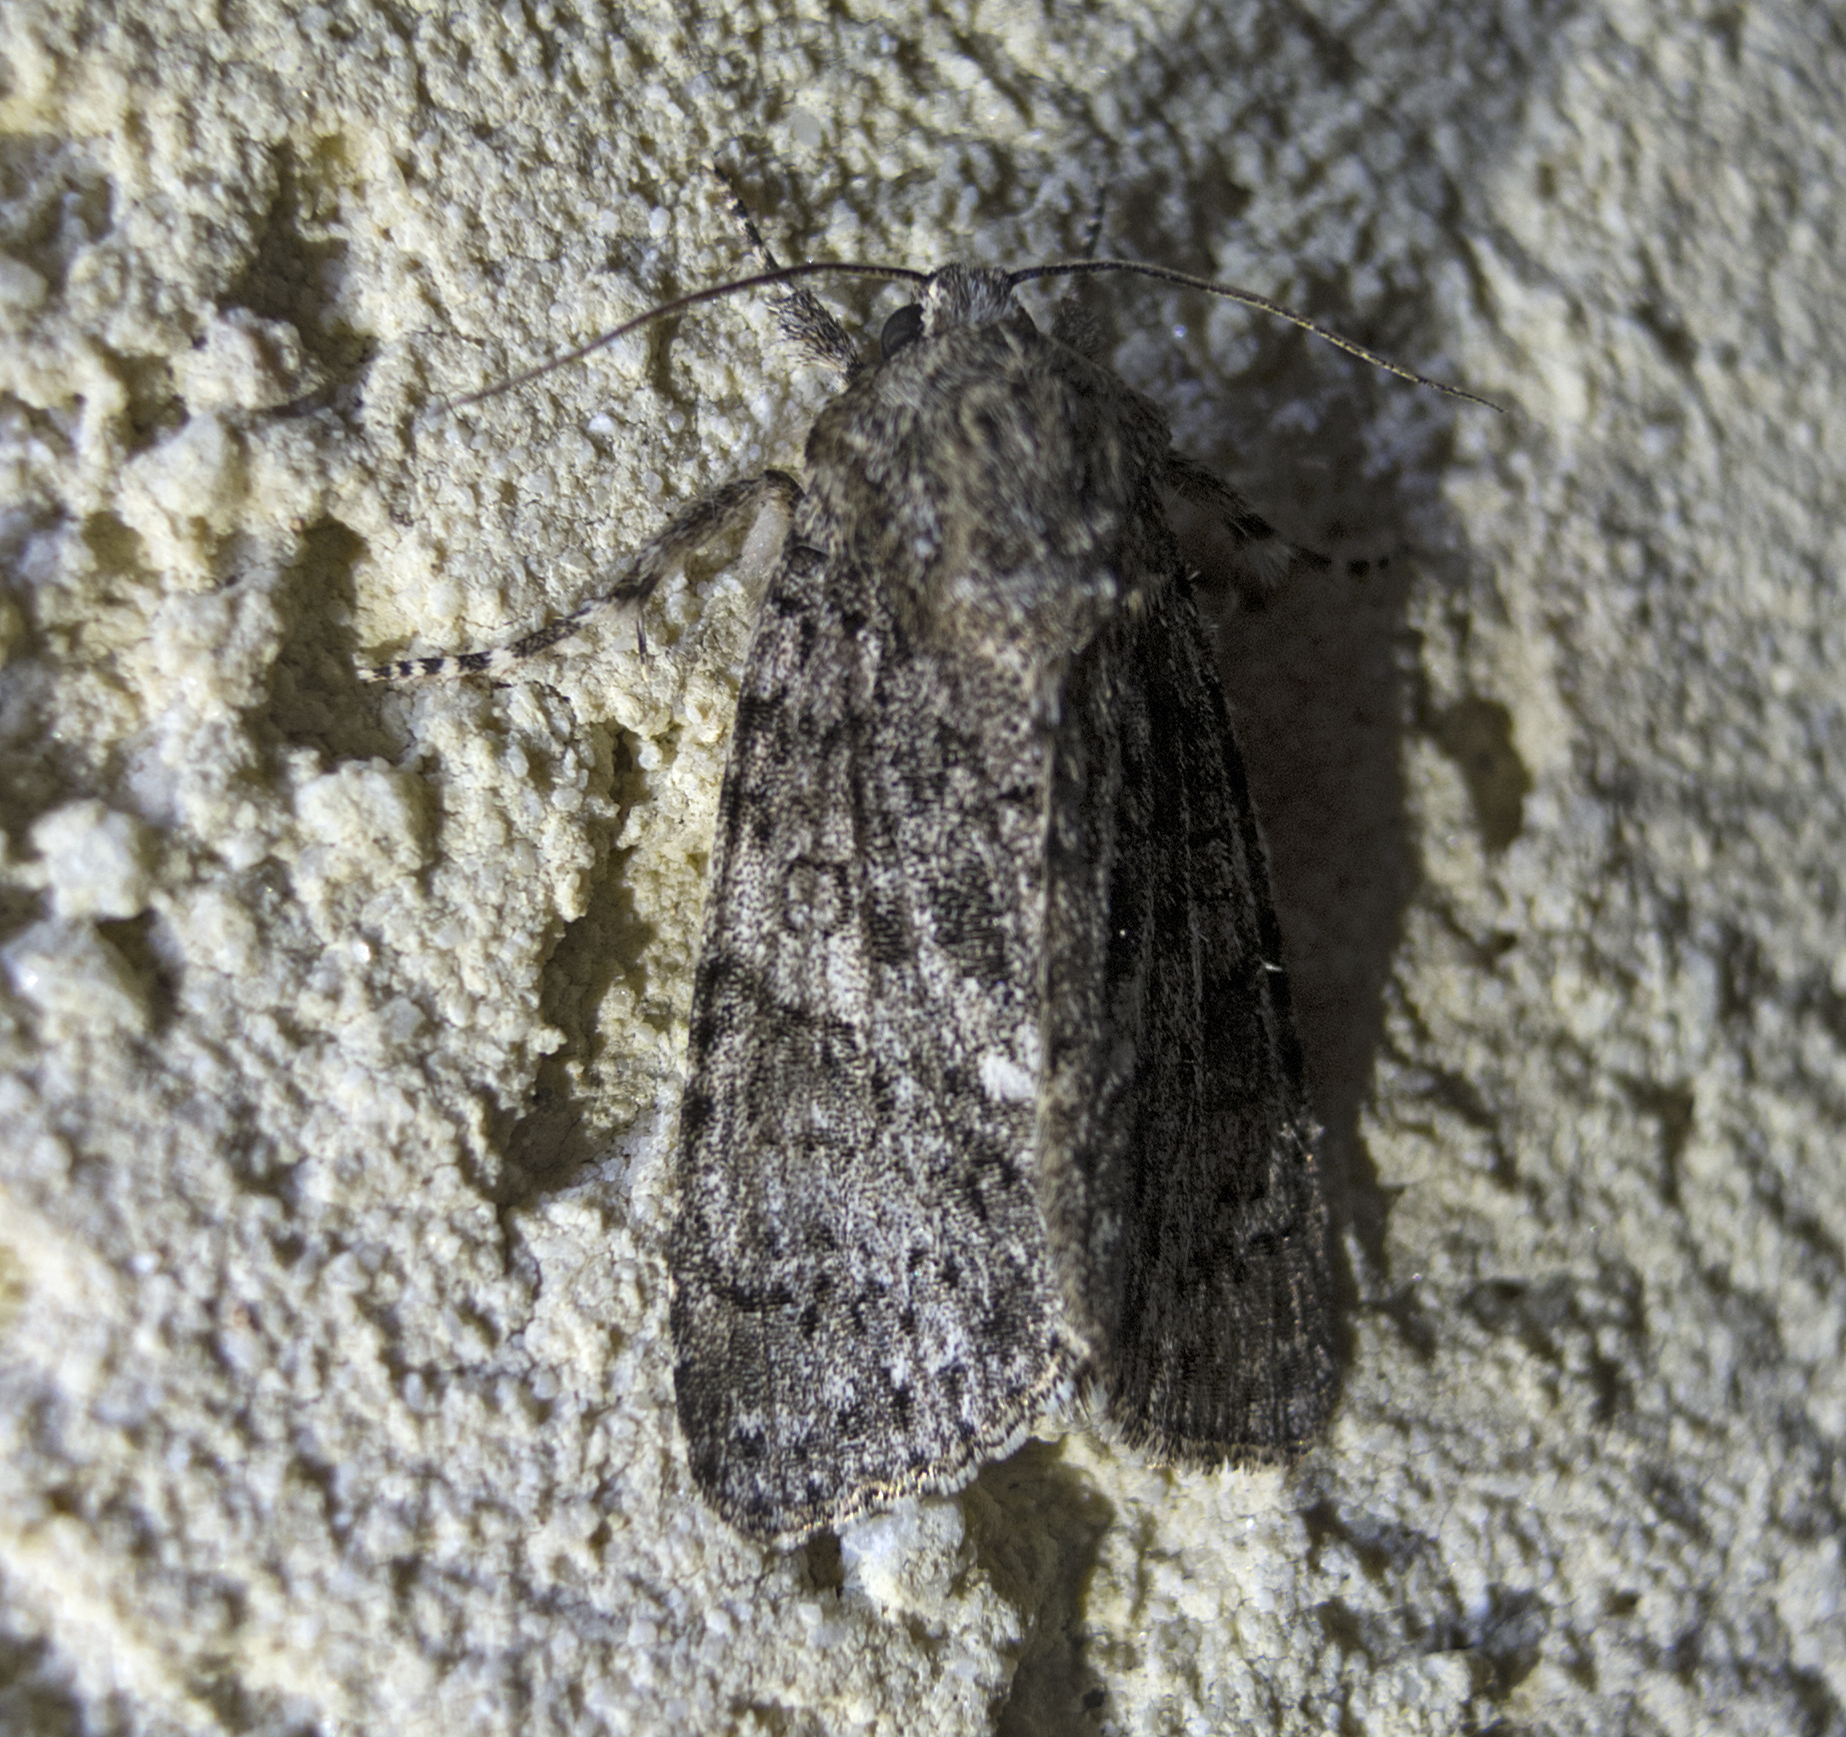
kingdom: Animalia
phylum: Arthropoda
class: Insecta
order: Lepidoptera
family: Noctuidae
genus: Acronicta
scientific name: Acronicta rumicis
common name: Knot grass
